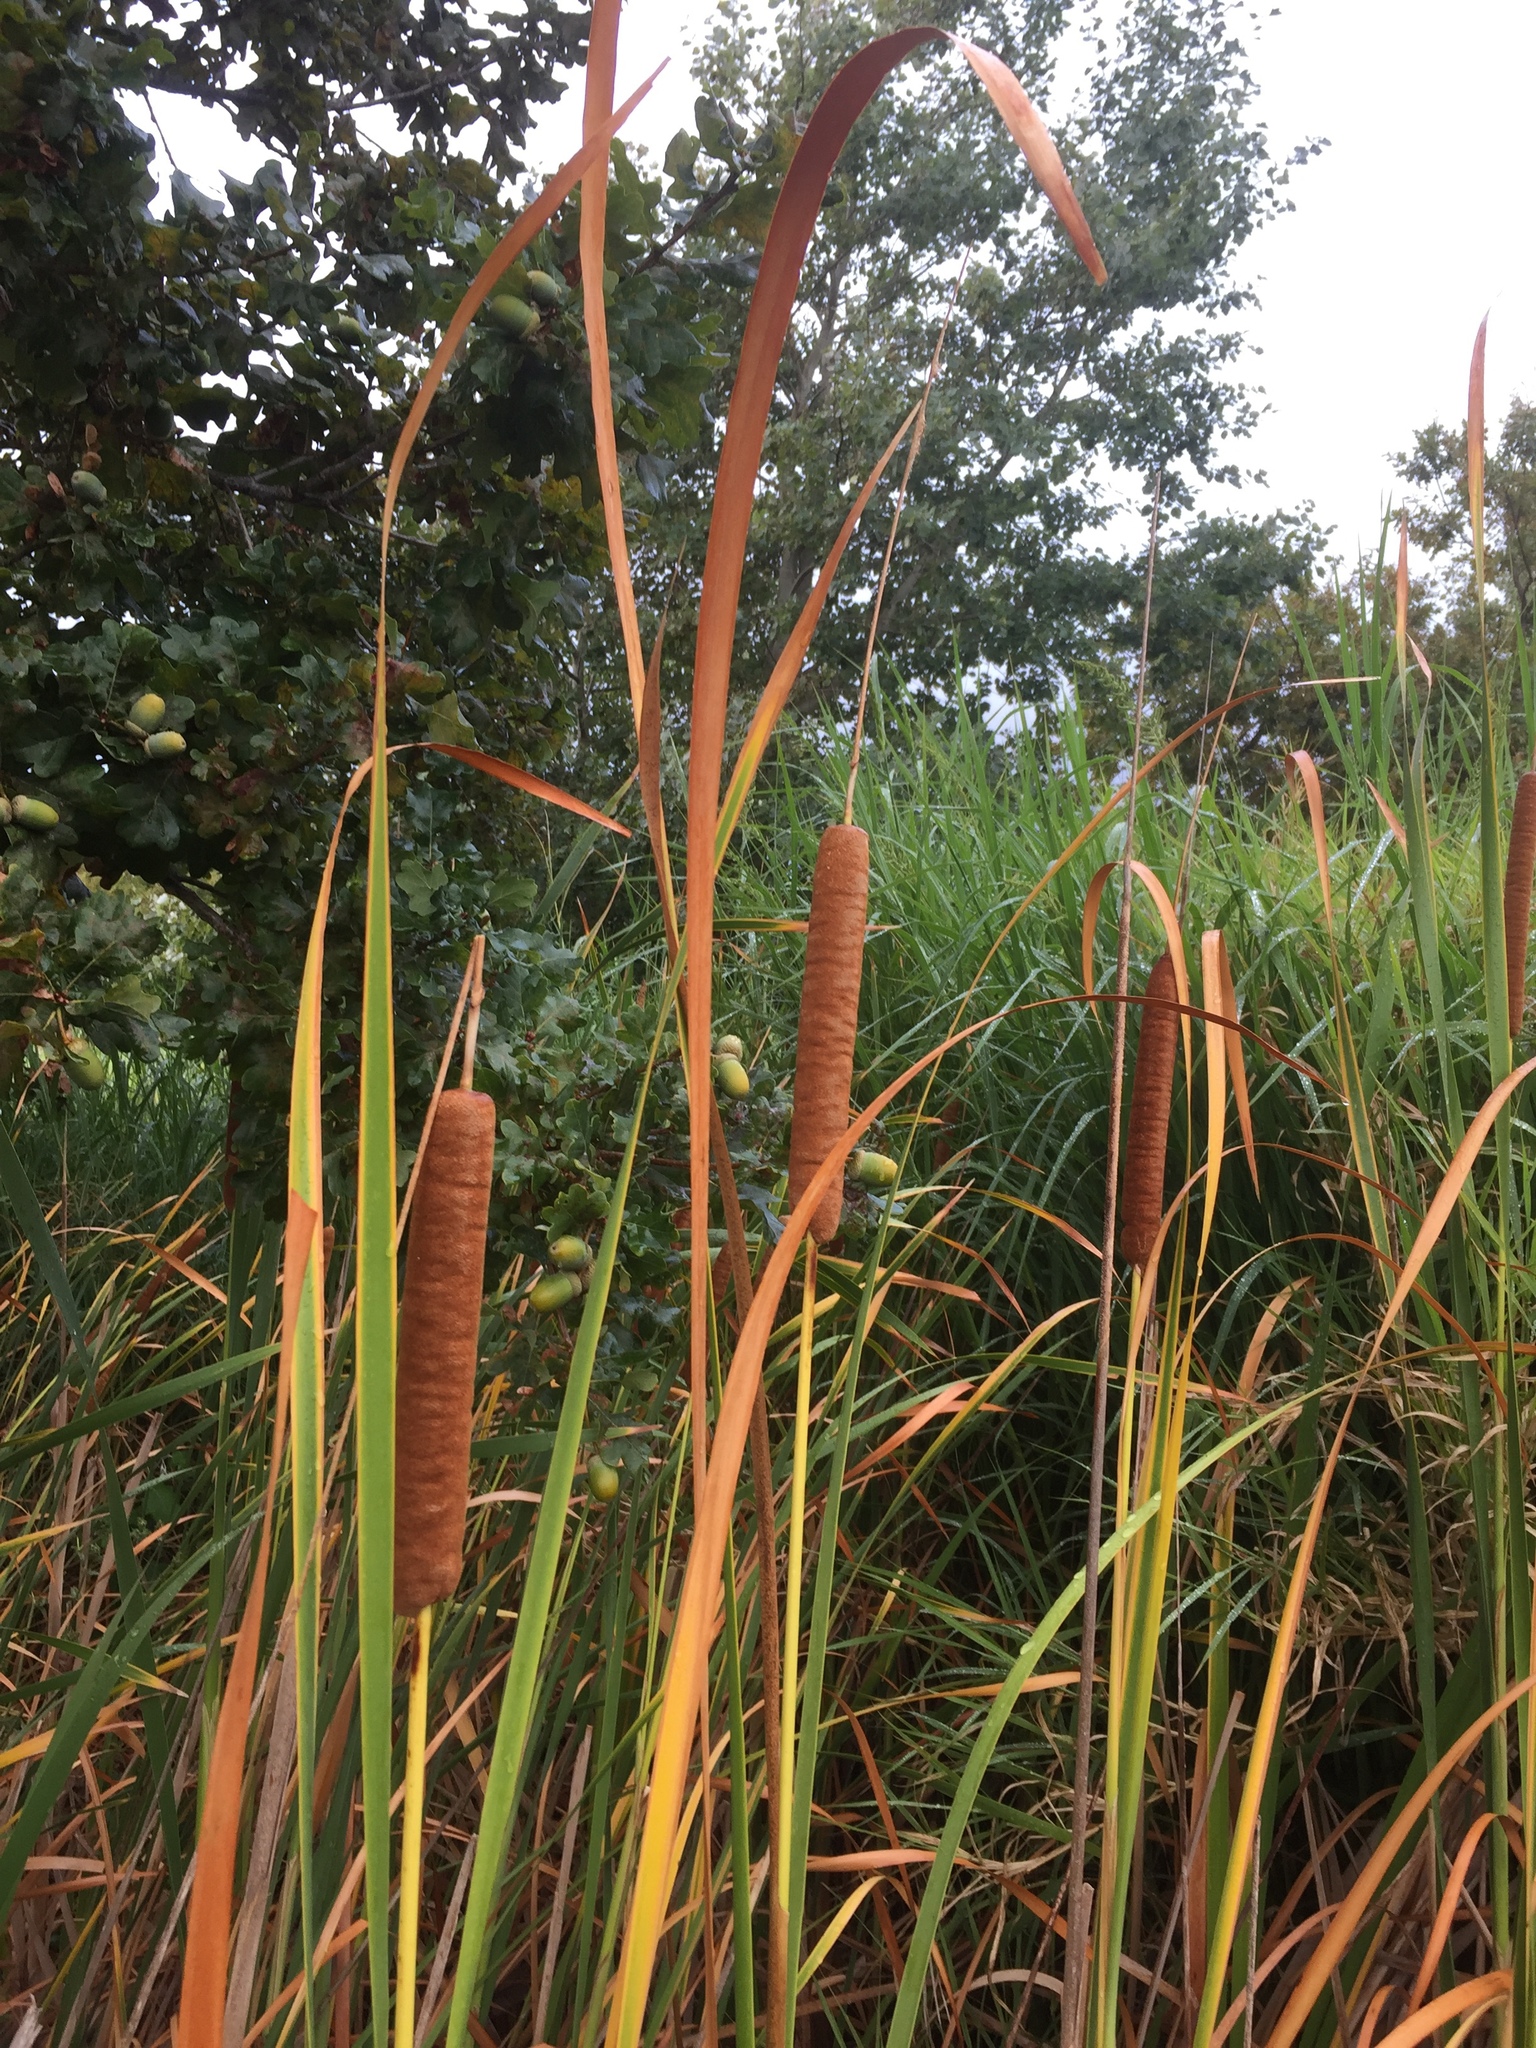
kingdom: Plantae
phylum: Tracheophyta
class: Liliopsida
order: Poales
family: Typhaceae
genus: Typha
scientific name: Typha capensis
